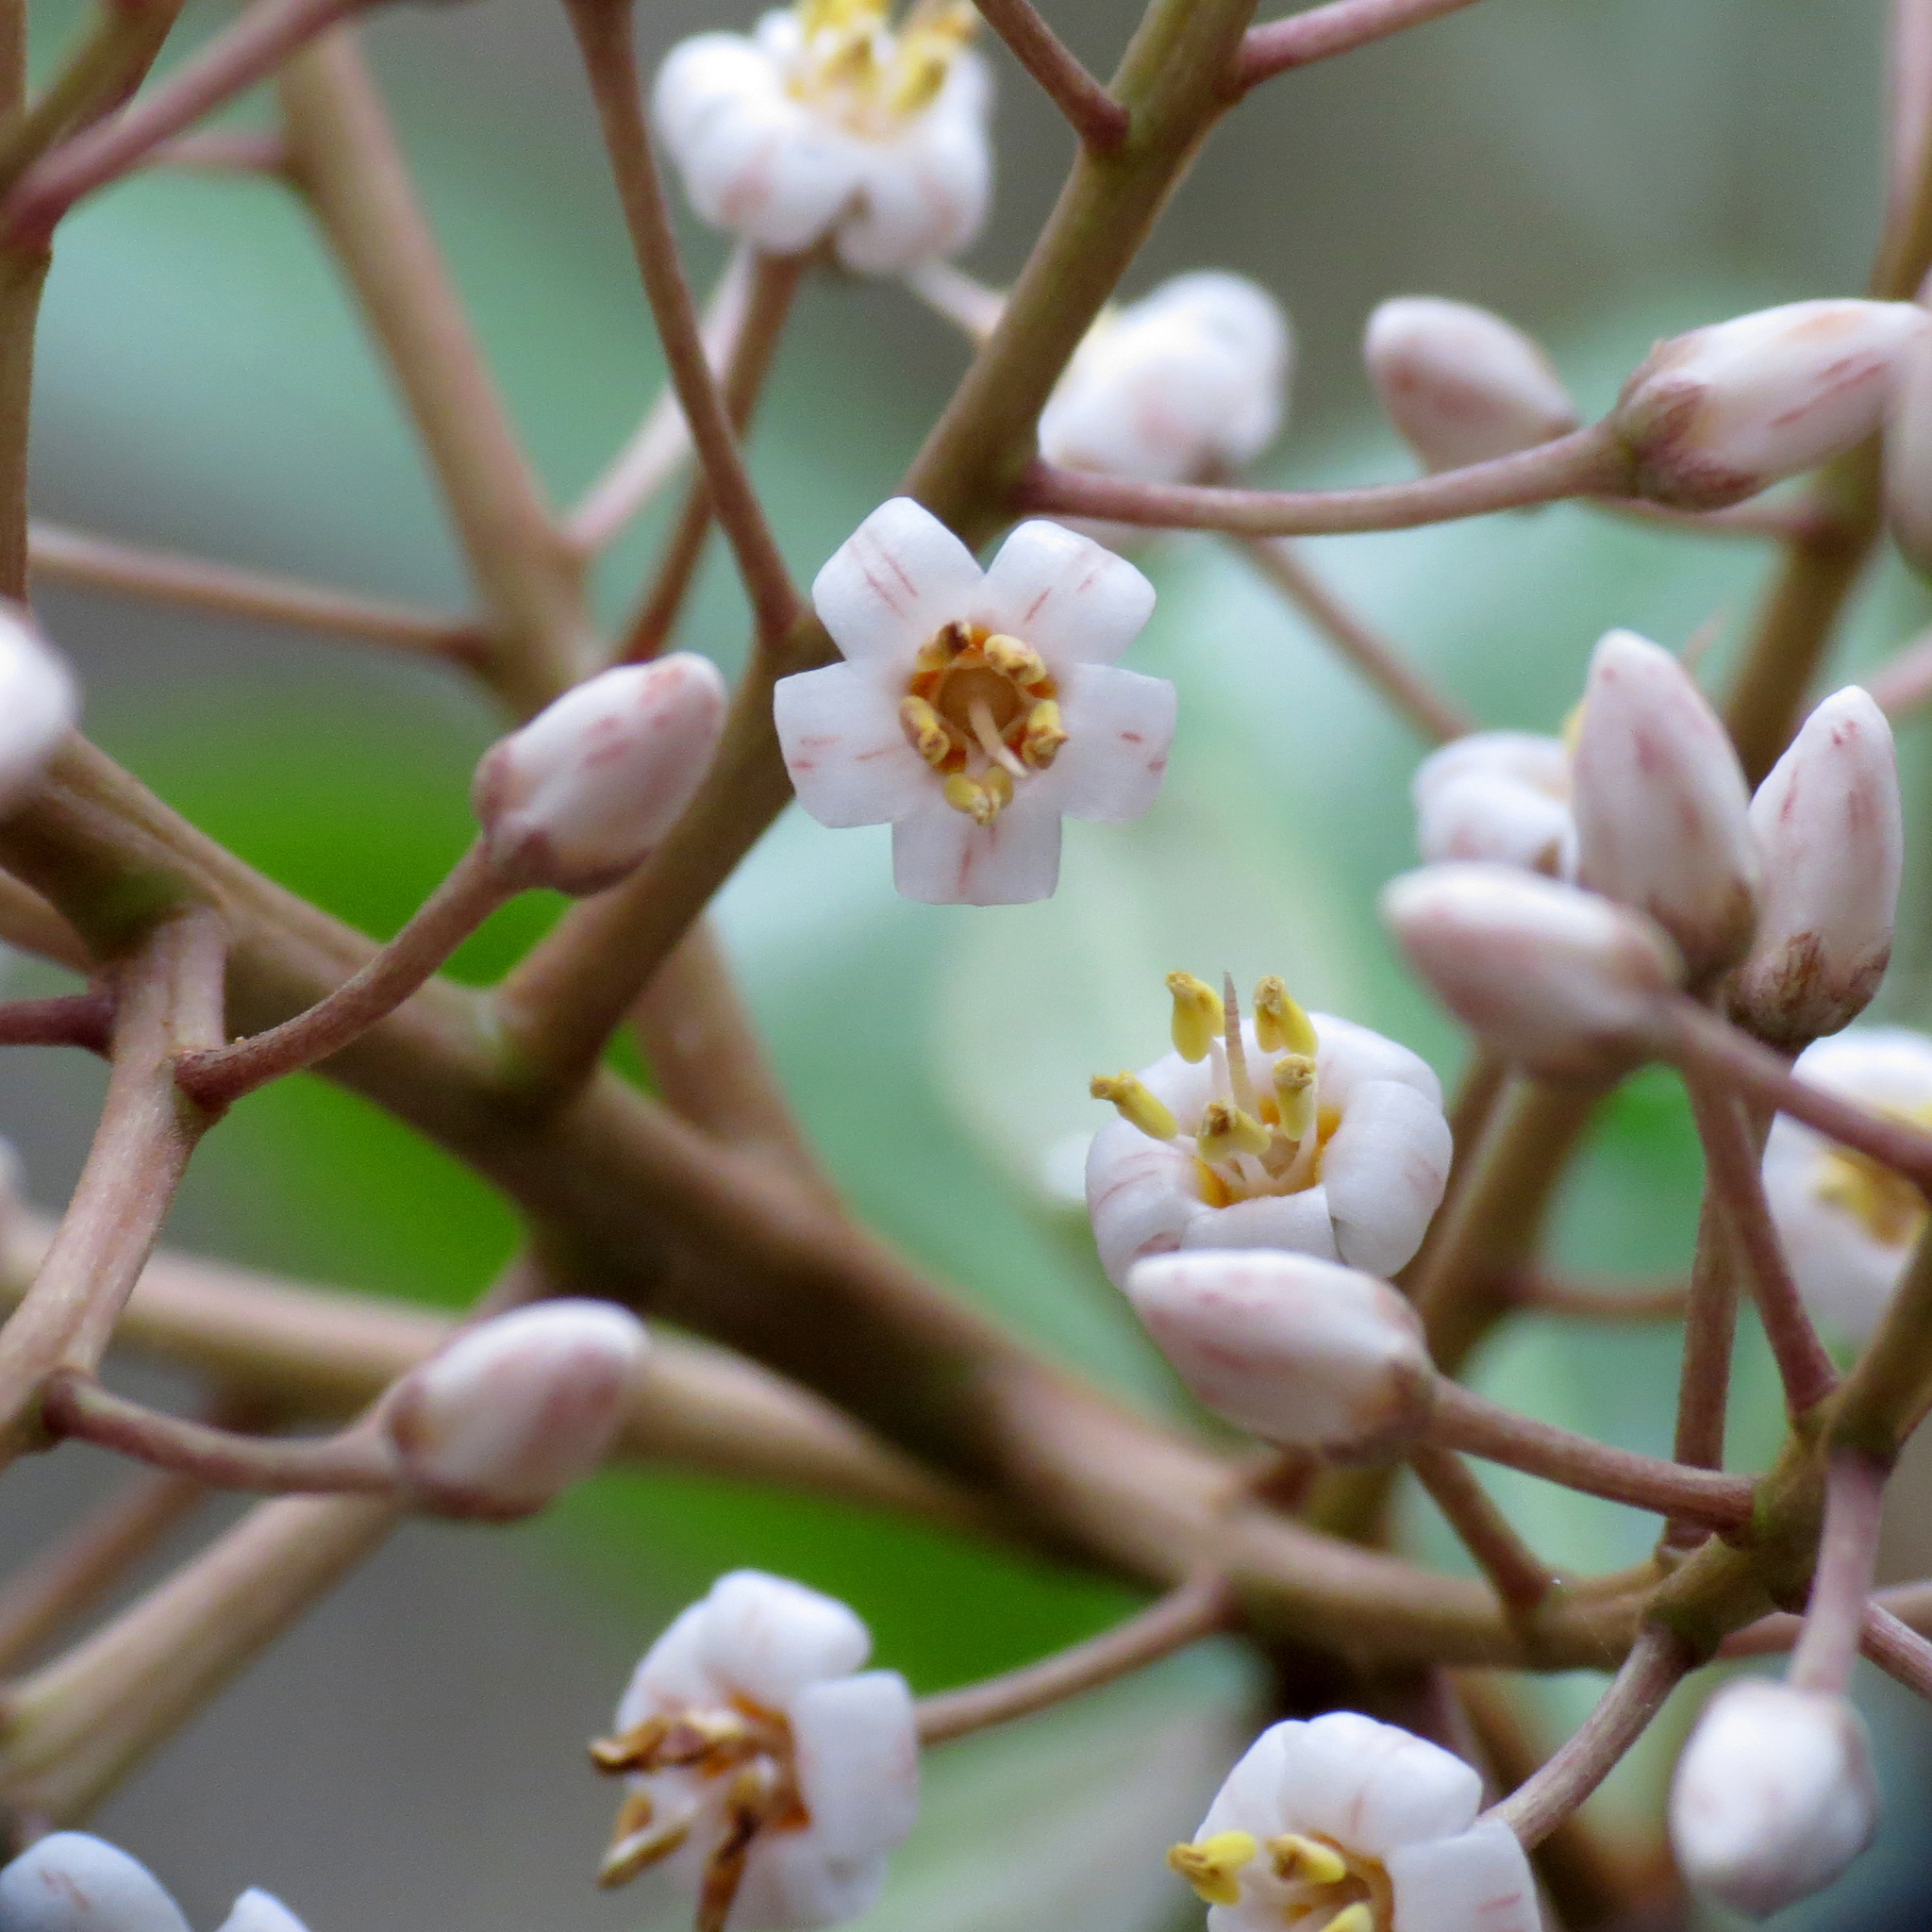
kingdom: Plantae
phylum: Tracheophyta
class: Magnoliopsida
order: Ericales
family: Primulaceae
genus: Ardisia
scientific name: Ardisia escallonioides
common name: Island marlberry
